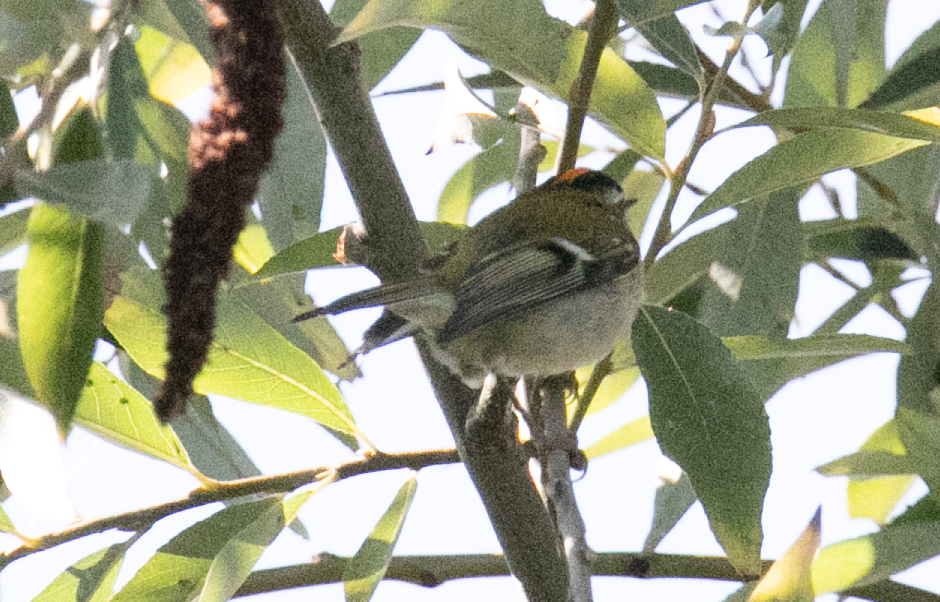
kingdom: Animalia
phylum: Chordata
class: Aves
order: Passeriformes
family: Regulidae
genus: Regulus
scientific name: Regulus ignicapilla
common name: Firecrest
